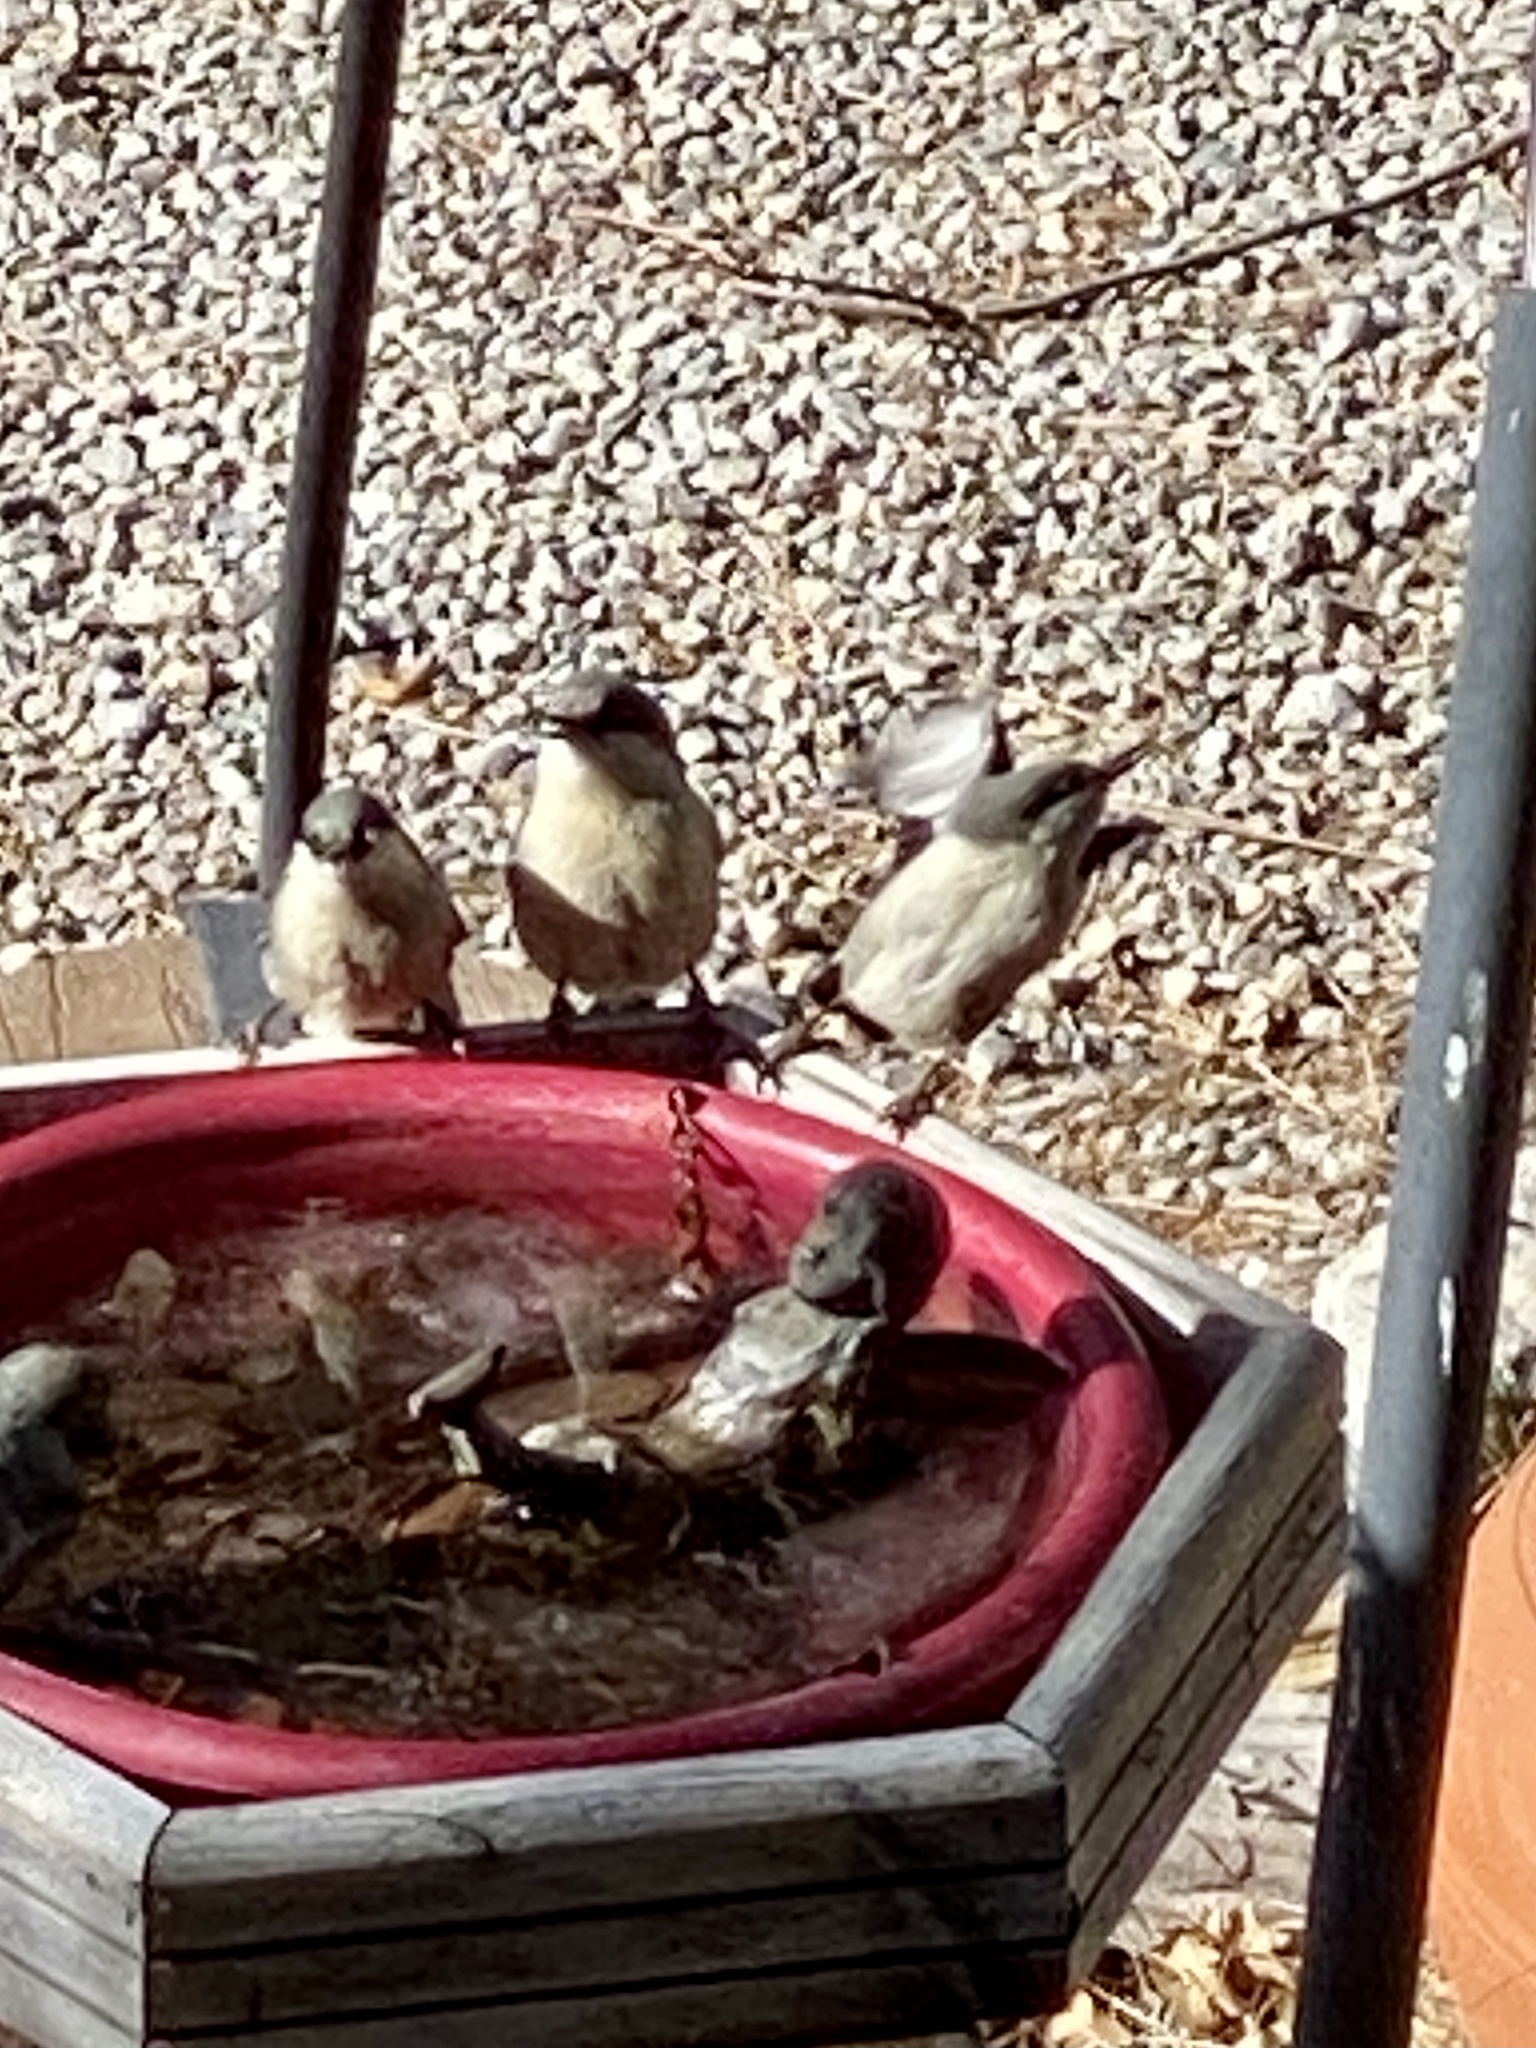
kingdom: Animalia
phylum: Chordata
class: Aves
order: Passeriformes
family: Sittidae
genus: Sitta
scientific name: Sitta pygmaea
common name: Pygmy nuthatch
